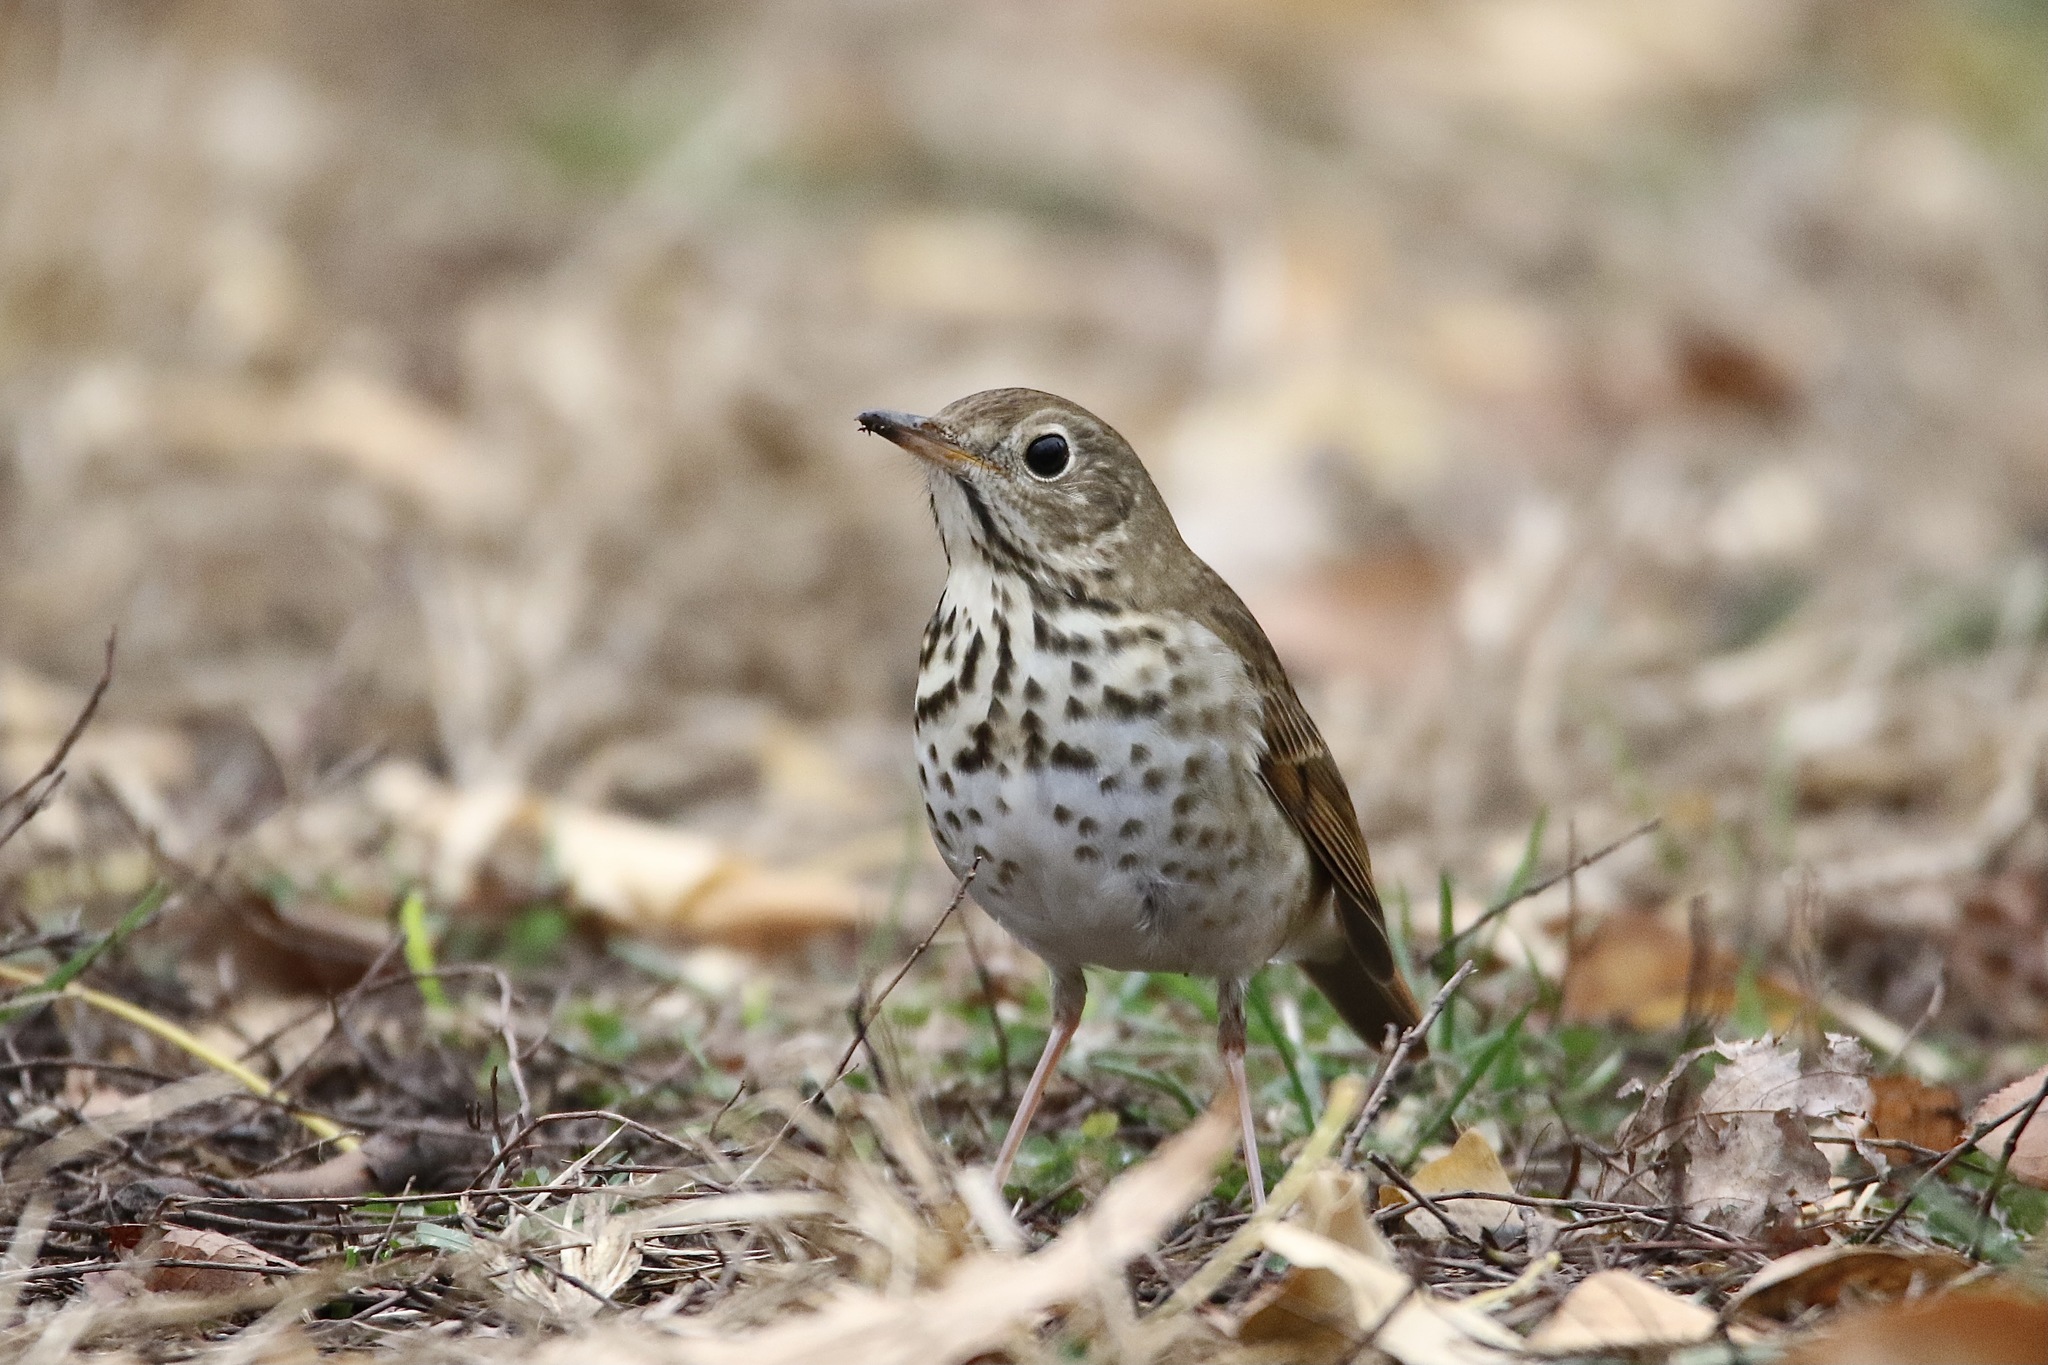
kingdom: Animalia
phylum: Chordata
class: Aves
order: Passeriformes
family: Turdidae
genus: Catharus
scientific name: Catharus guttatus
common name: Hermit thrush
